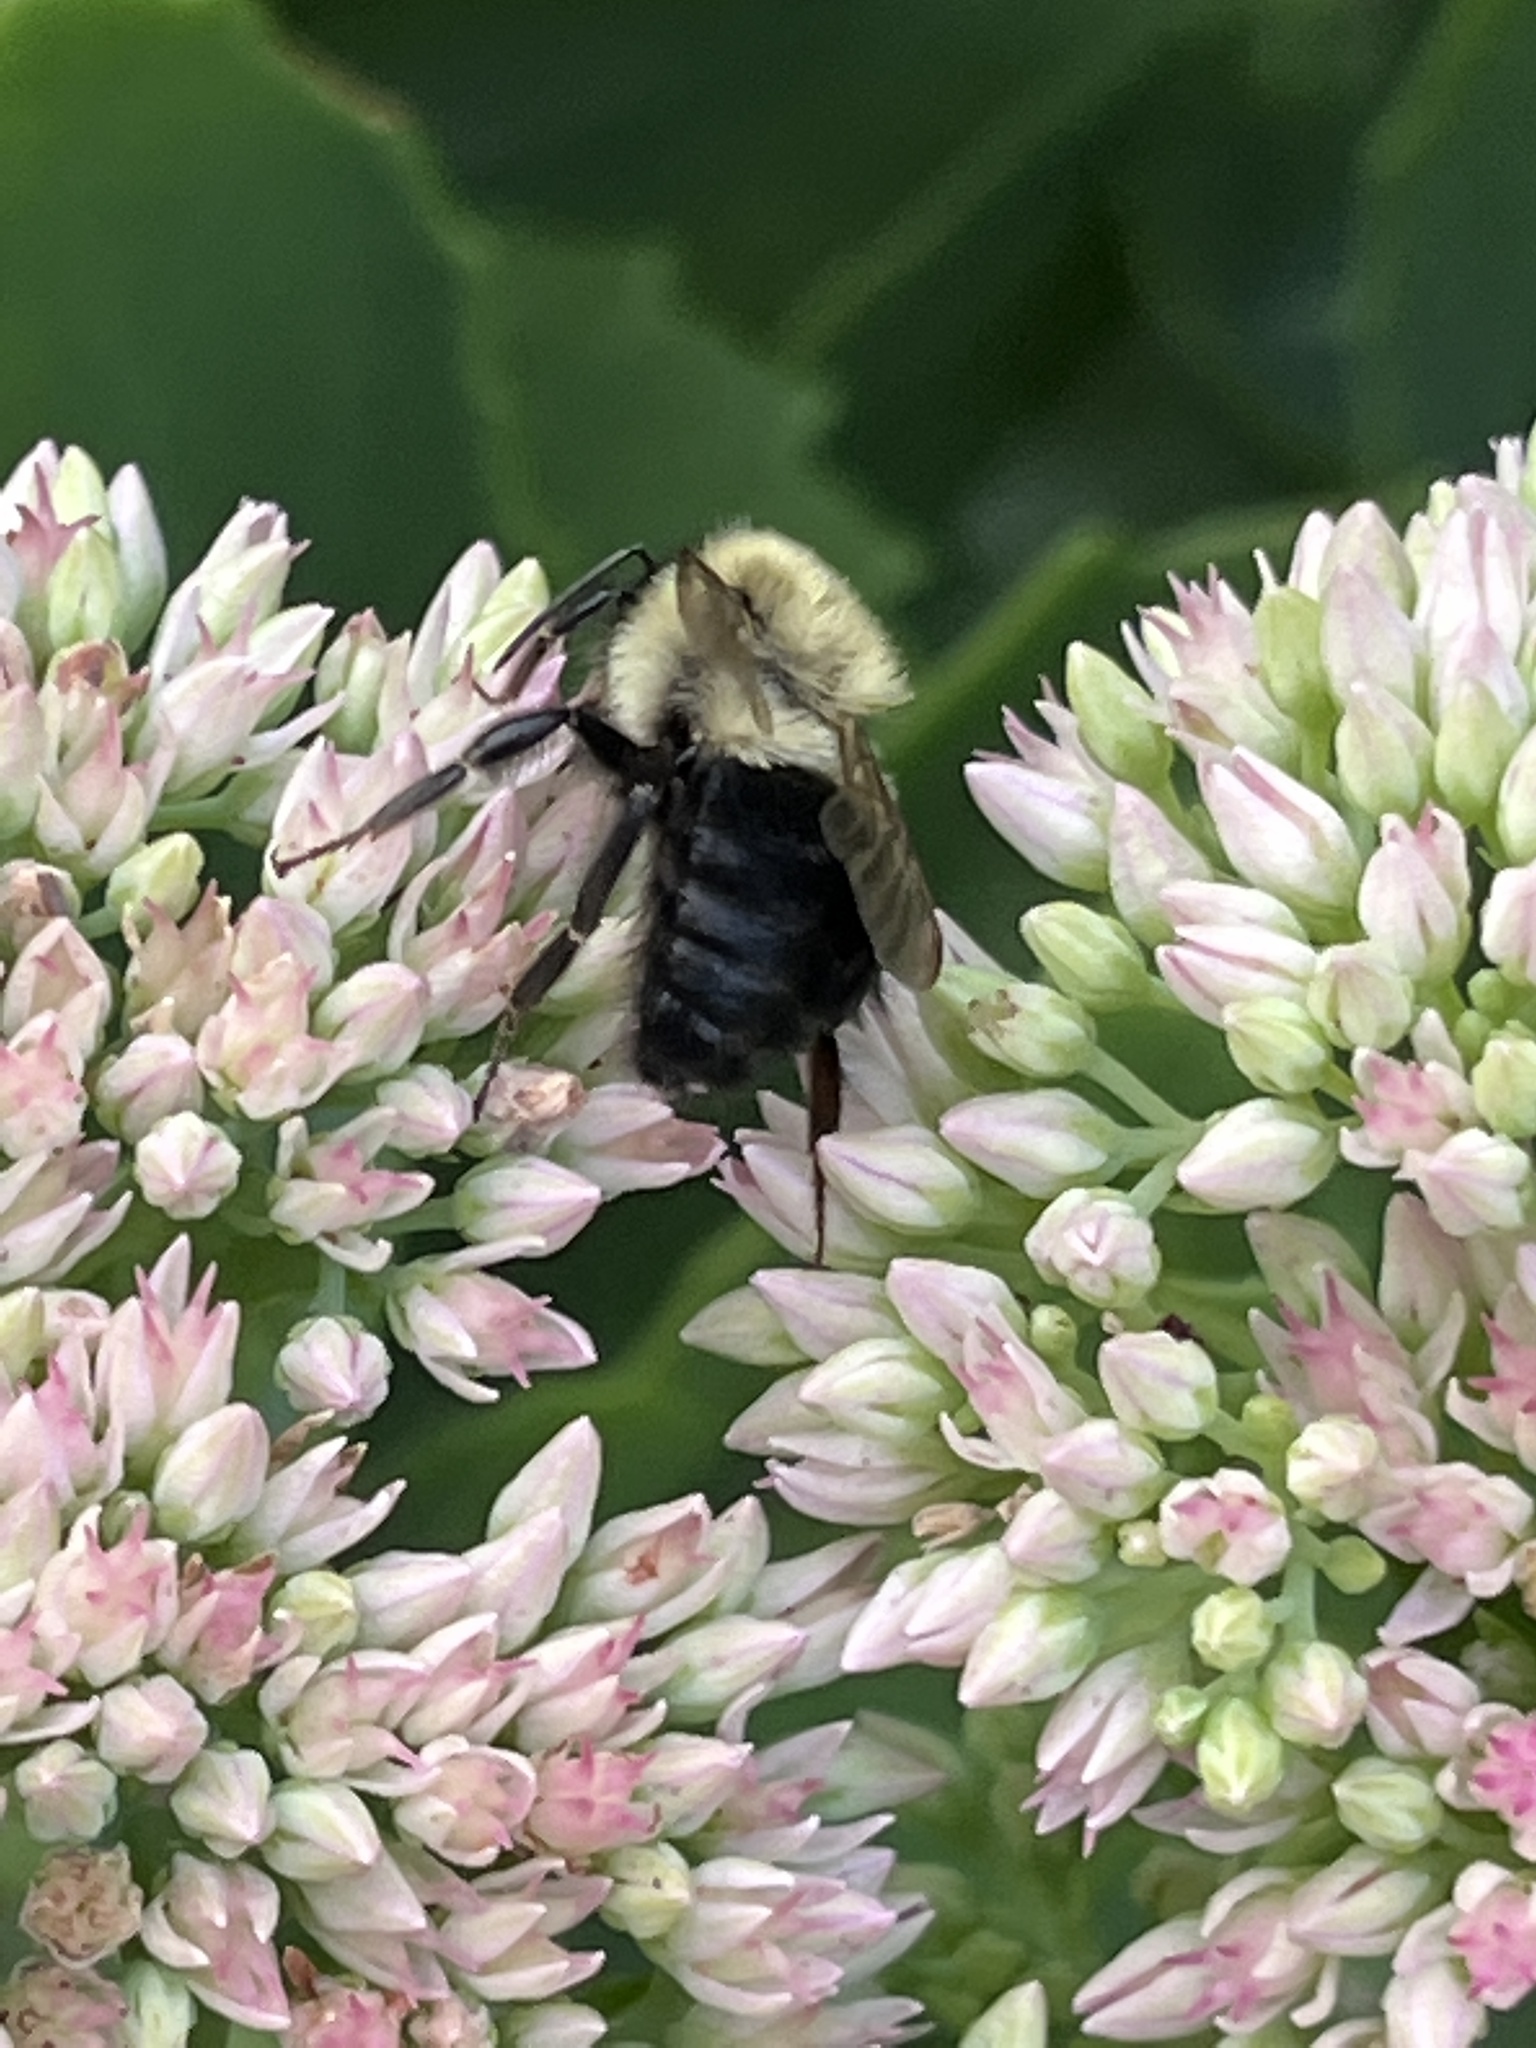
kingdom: Animalia
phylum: Arthropoda
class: Insecta
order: Hymenoptera
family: Apidae
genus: Bombus
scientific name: Bombus impatiens
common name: Common eastern bumble bee
